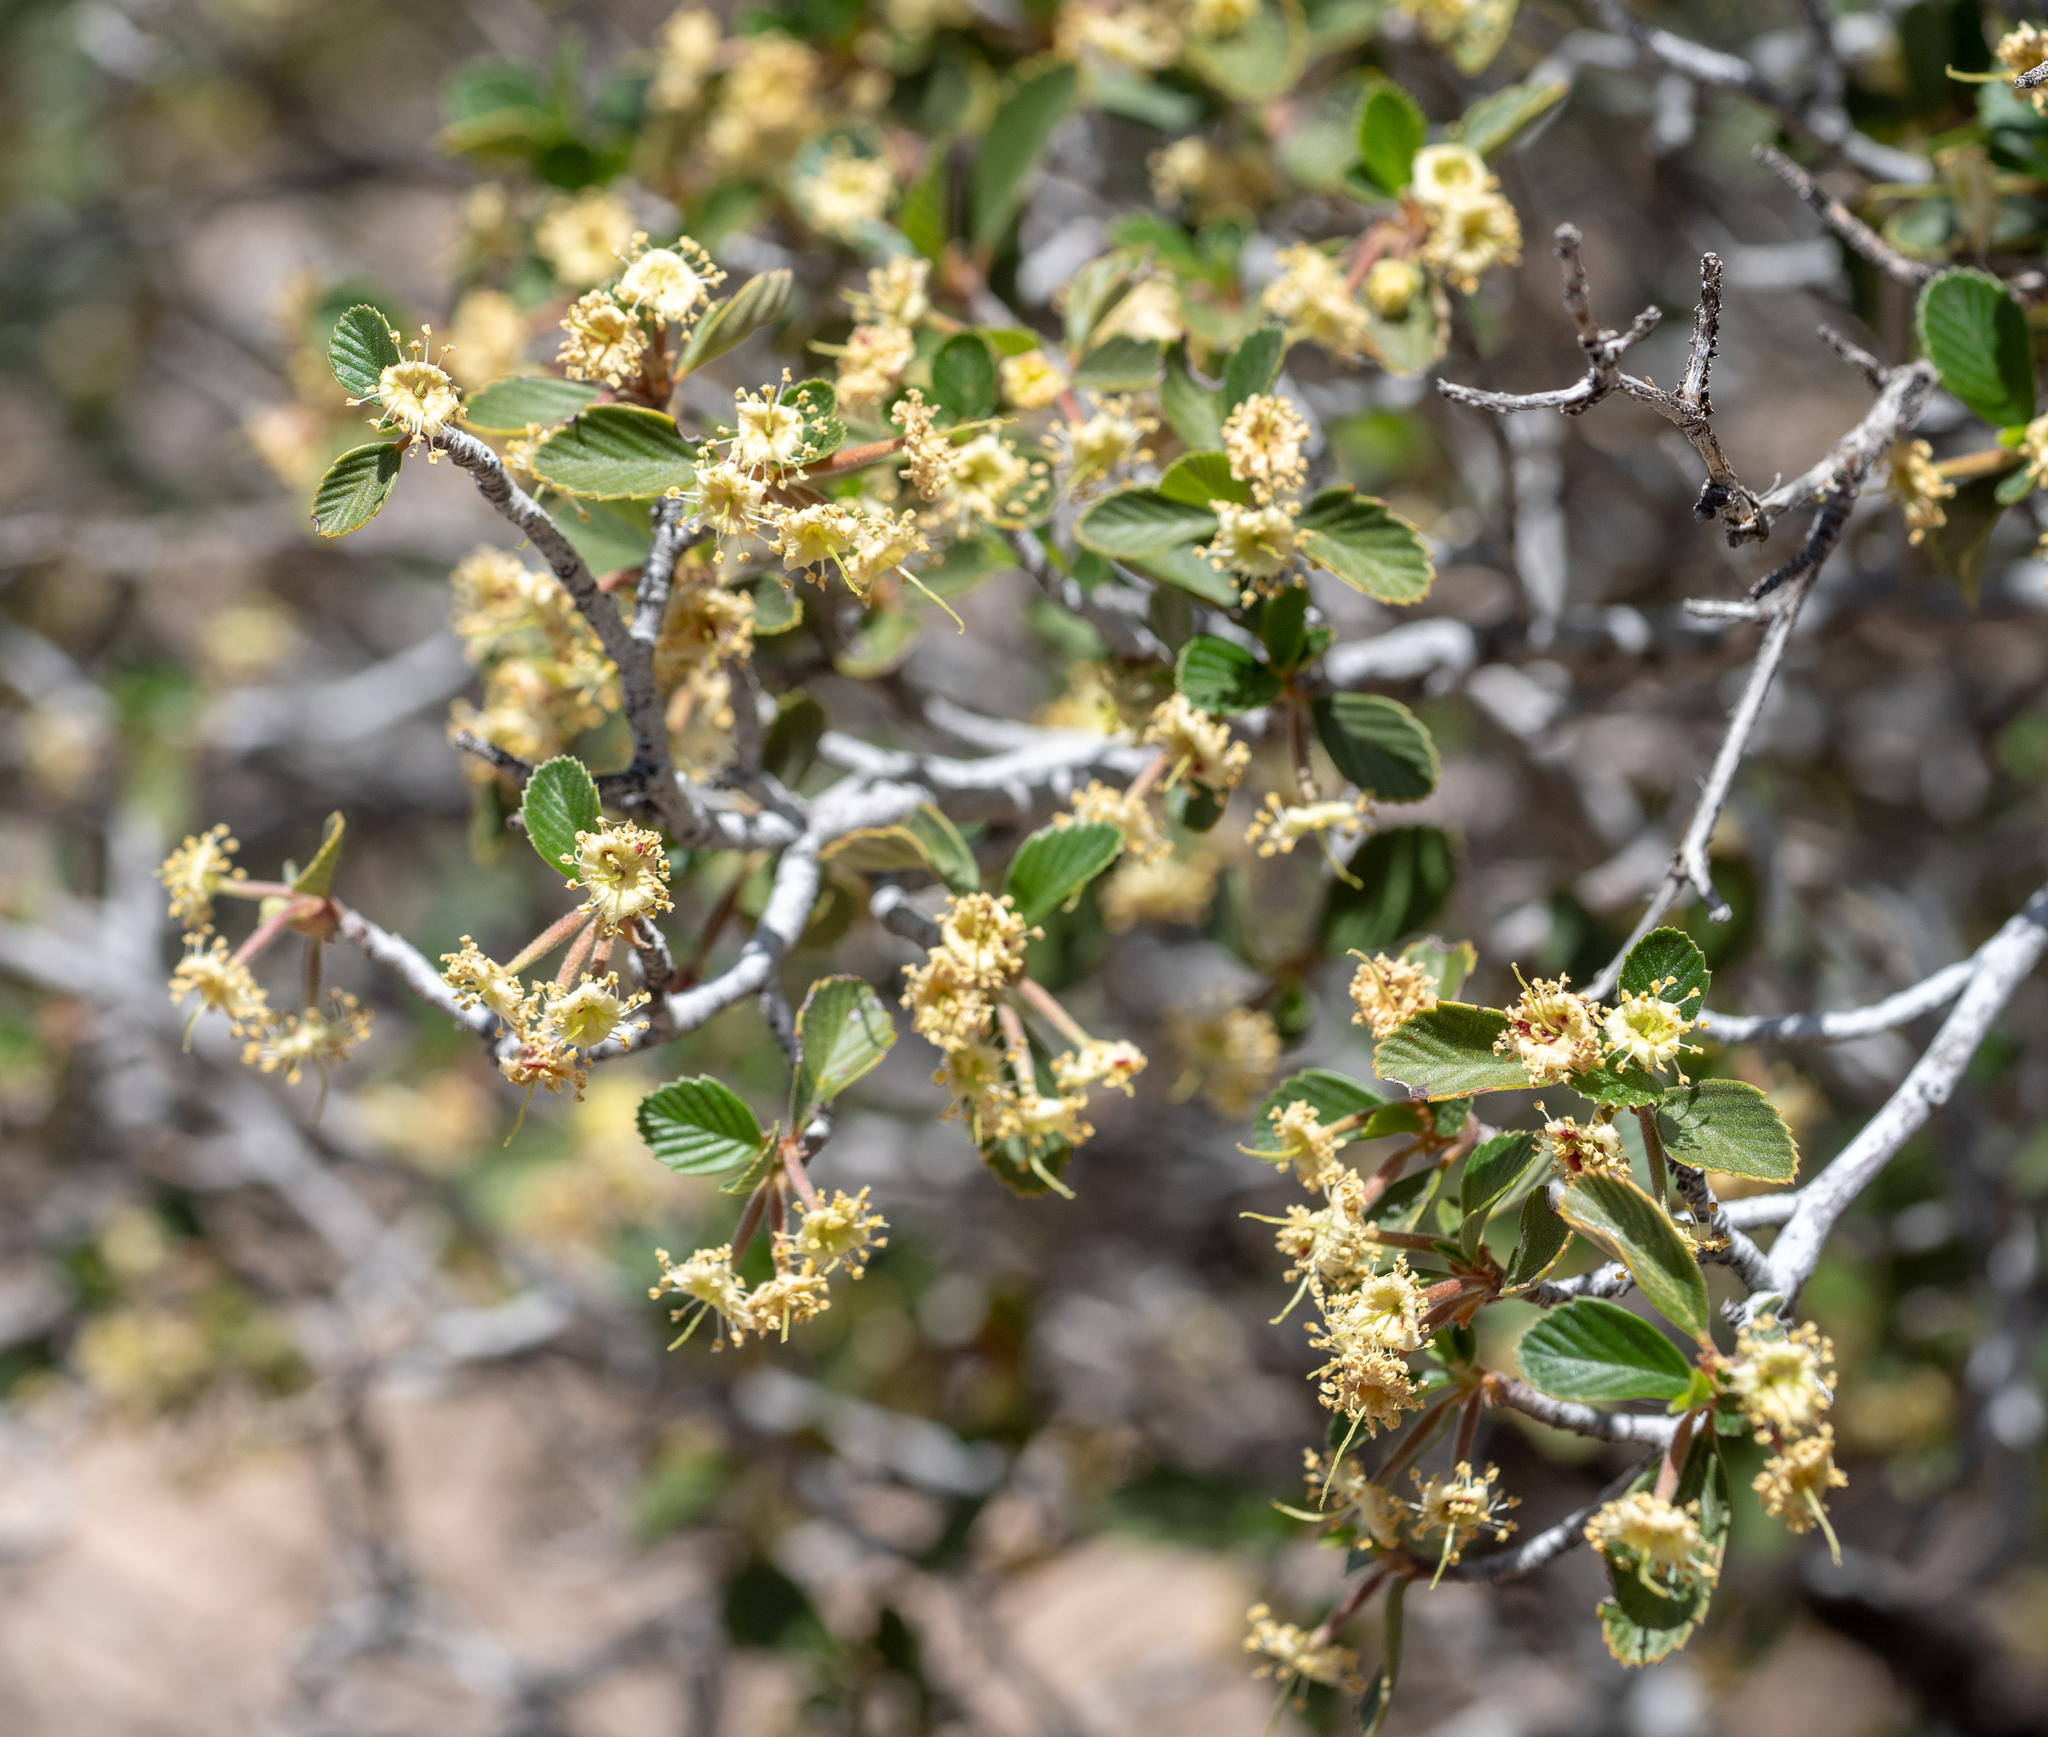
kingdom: Plantae
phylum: Tracheophyta
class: Magnoliopsida
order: Rosales
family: Rosaceae
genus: Cercocarpus
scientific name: Cercocarpus betuloides
